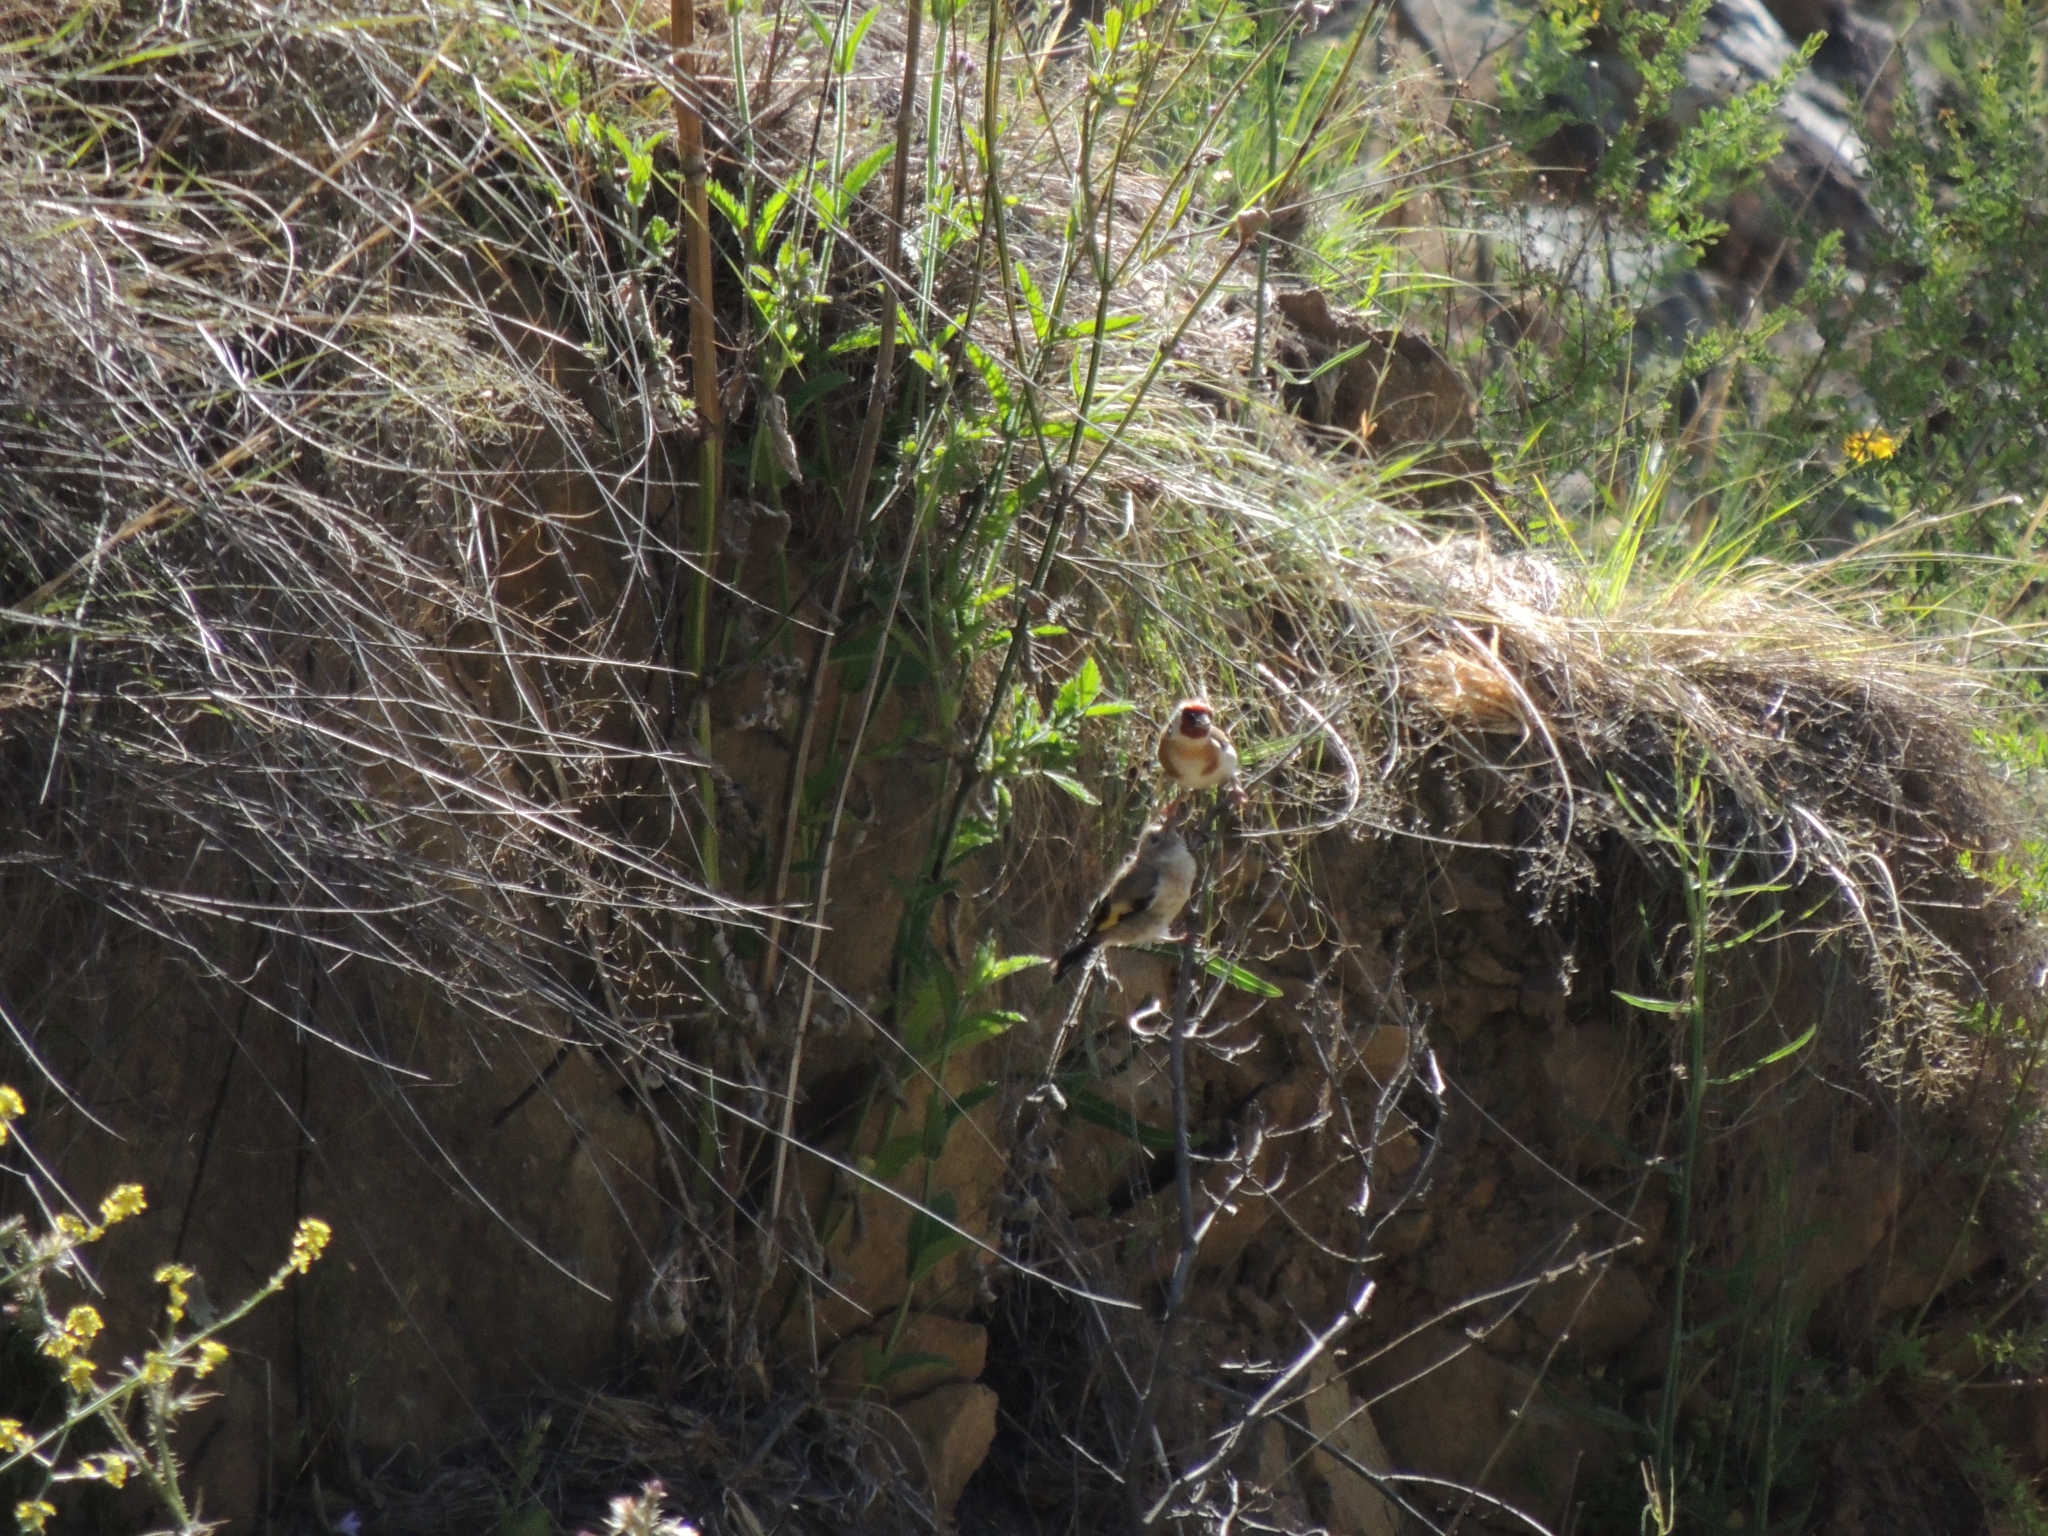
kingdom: Animalia
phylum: Chordata
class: Aves
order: Passeriformes
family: Fringillidae
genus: Carduelis
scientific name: Carduelis carduelis
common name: European goldfinch
